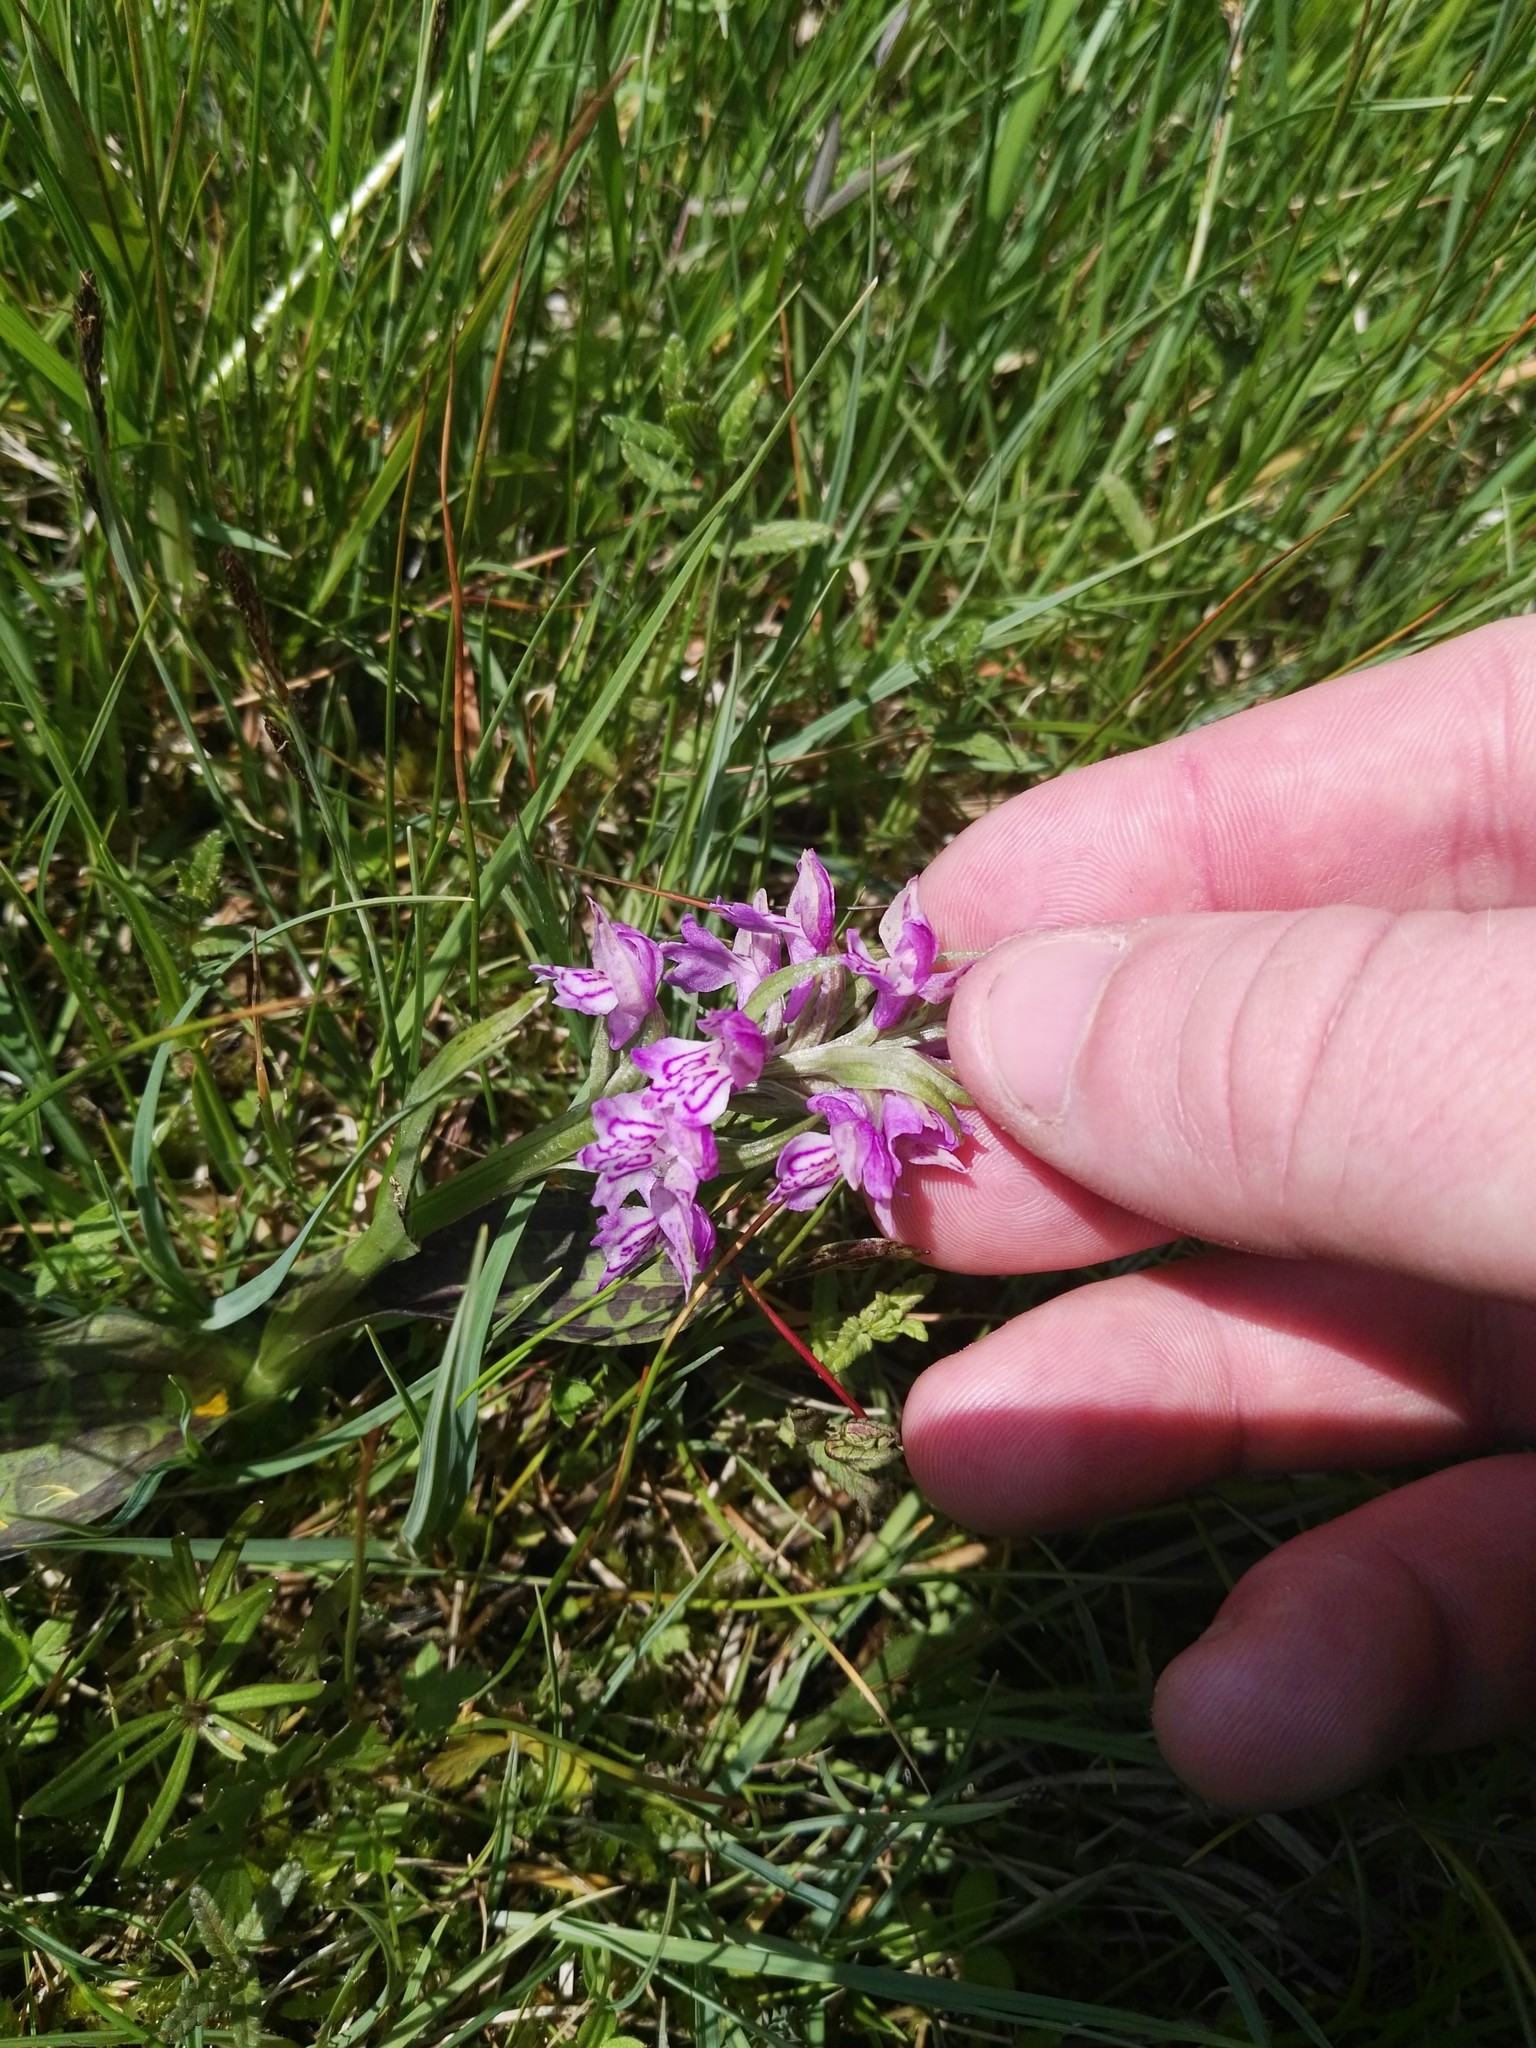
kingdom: Plantae
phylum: Tracheophyta
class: Liliopsida
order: Asparagales
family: Orchidaceae
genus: Dactylorhiza
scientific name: Dactylorhiza majalis
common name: Marsh orchid
